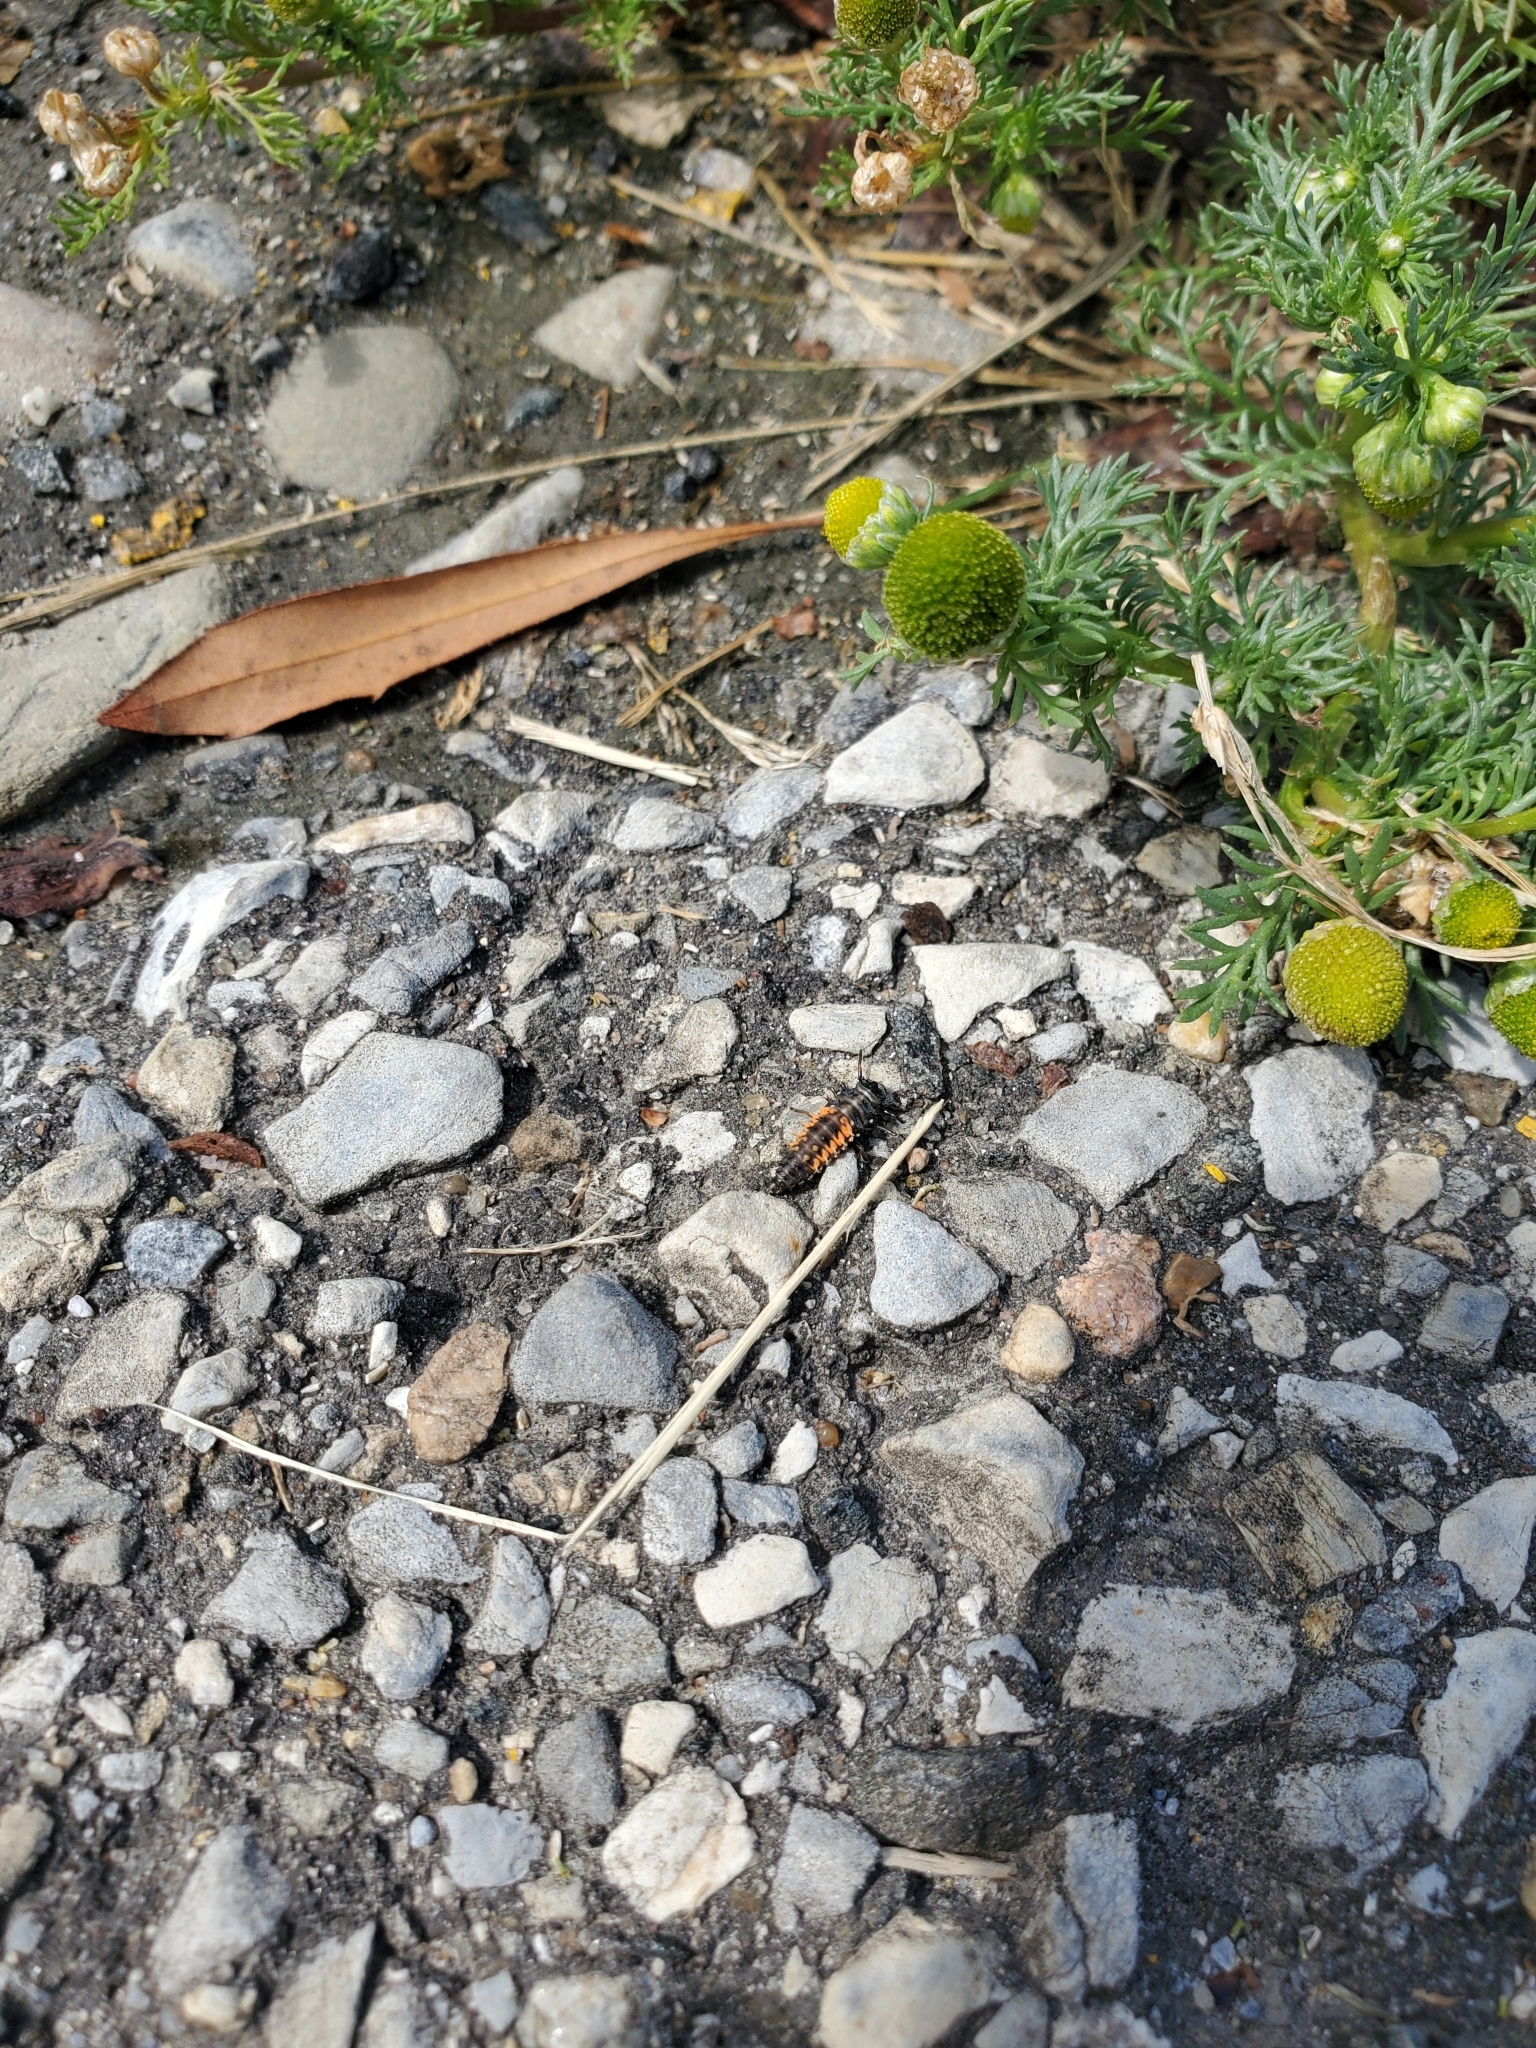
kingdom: Animalia
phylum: Arthropoda
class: Insecta
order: Coleoptera
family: Coccinellidae
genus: Harmonia
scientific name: Harmonia axyridis
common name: Harlequin ladybird
